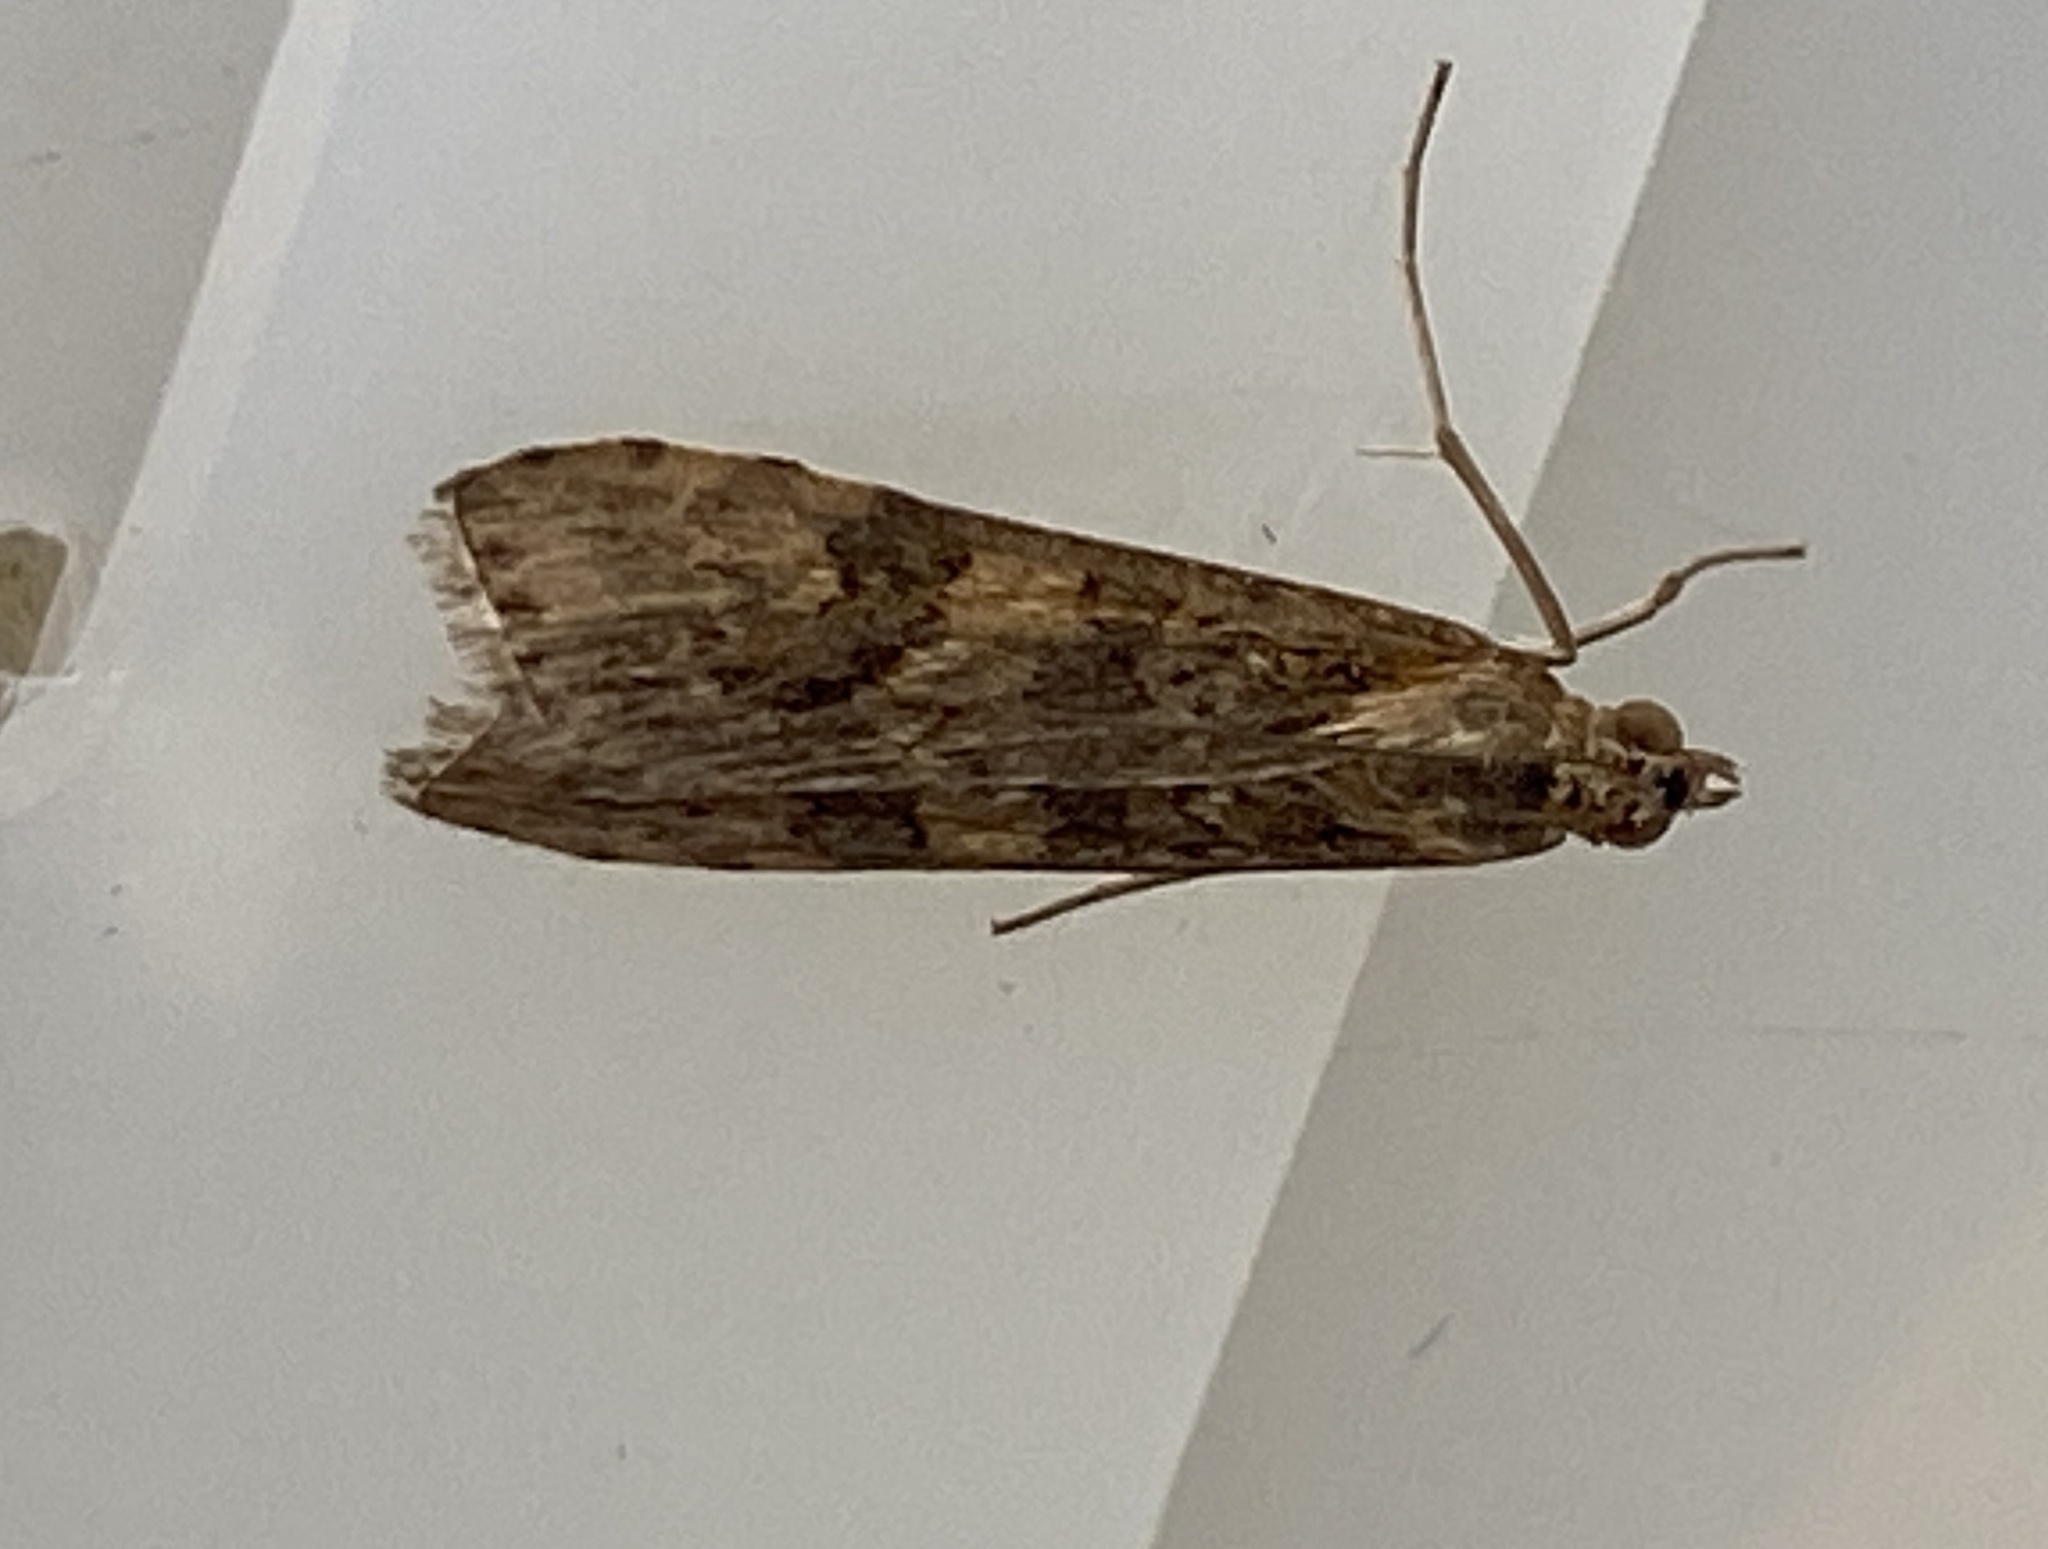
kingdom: Animalia
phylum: Arthropoda
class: Insecta
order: Lepidoptera
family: Crambidae
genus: Nomophila
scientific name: Nomophila noctuella
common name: Rush veneer
